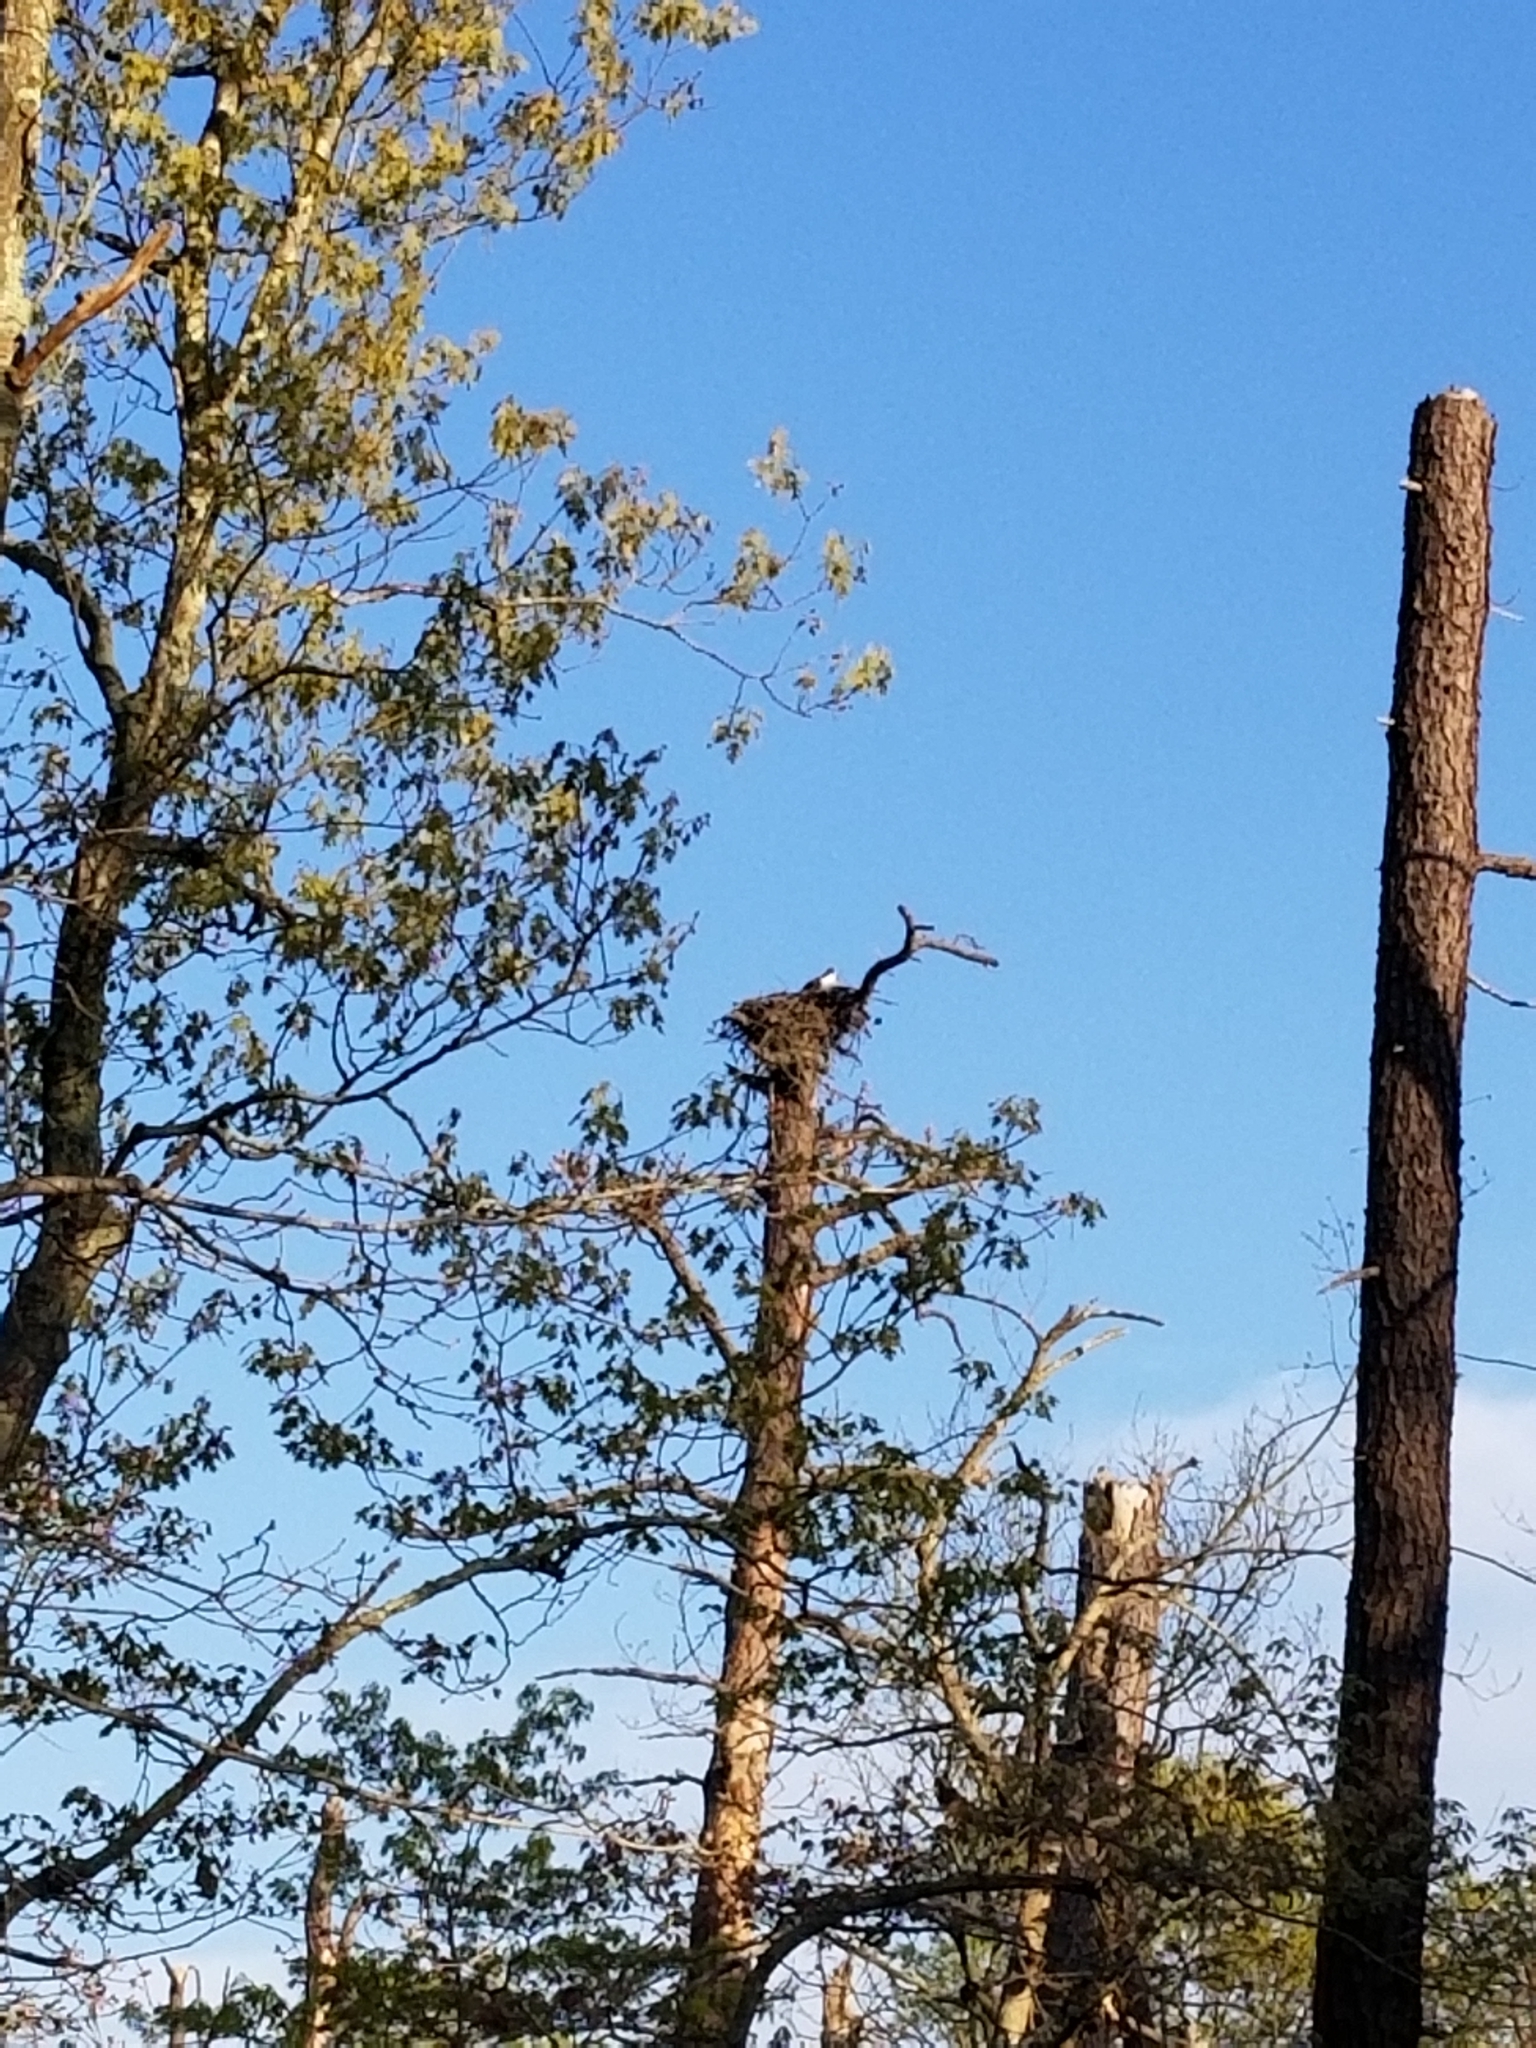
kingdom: Animalia
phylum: Chordata
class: Aves
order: Accipitriformes
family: Pandionidae
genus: Pandion
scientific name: Pandion haliaetus
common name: Osprey
